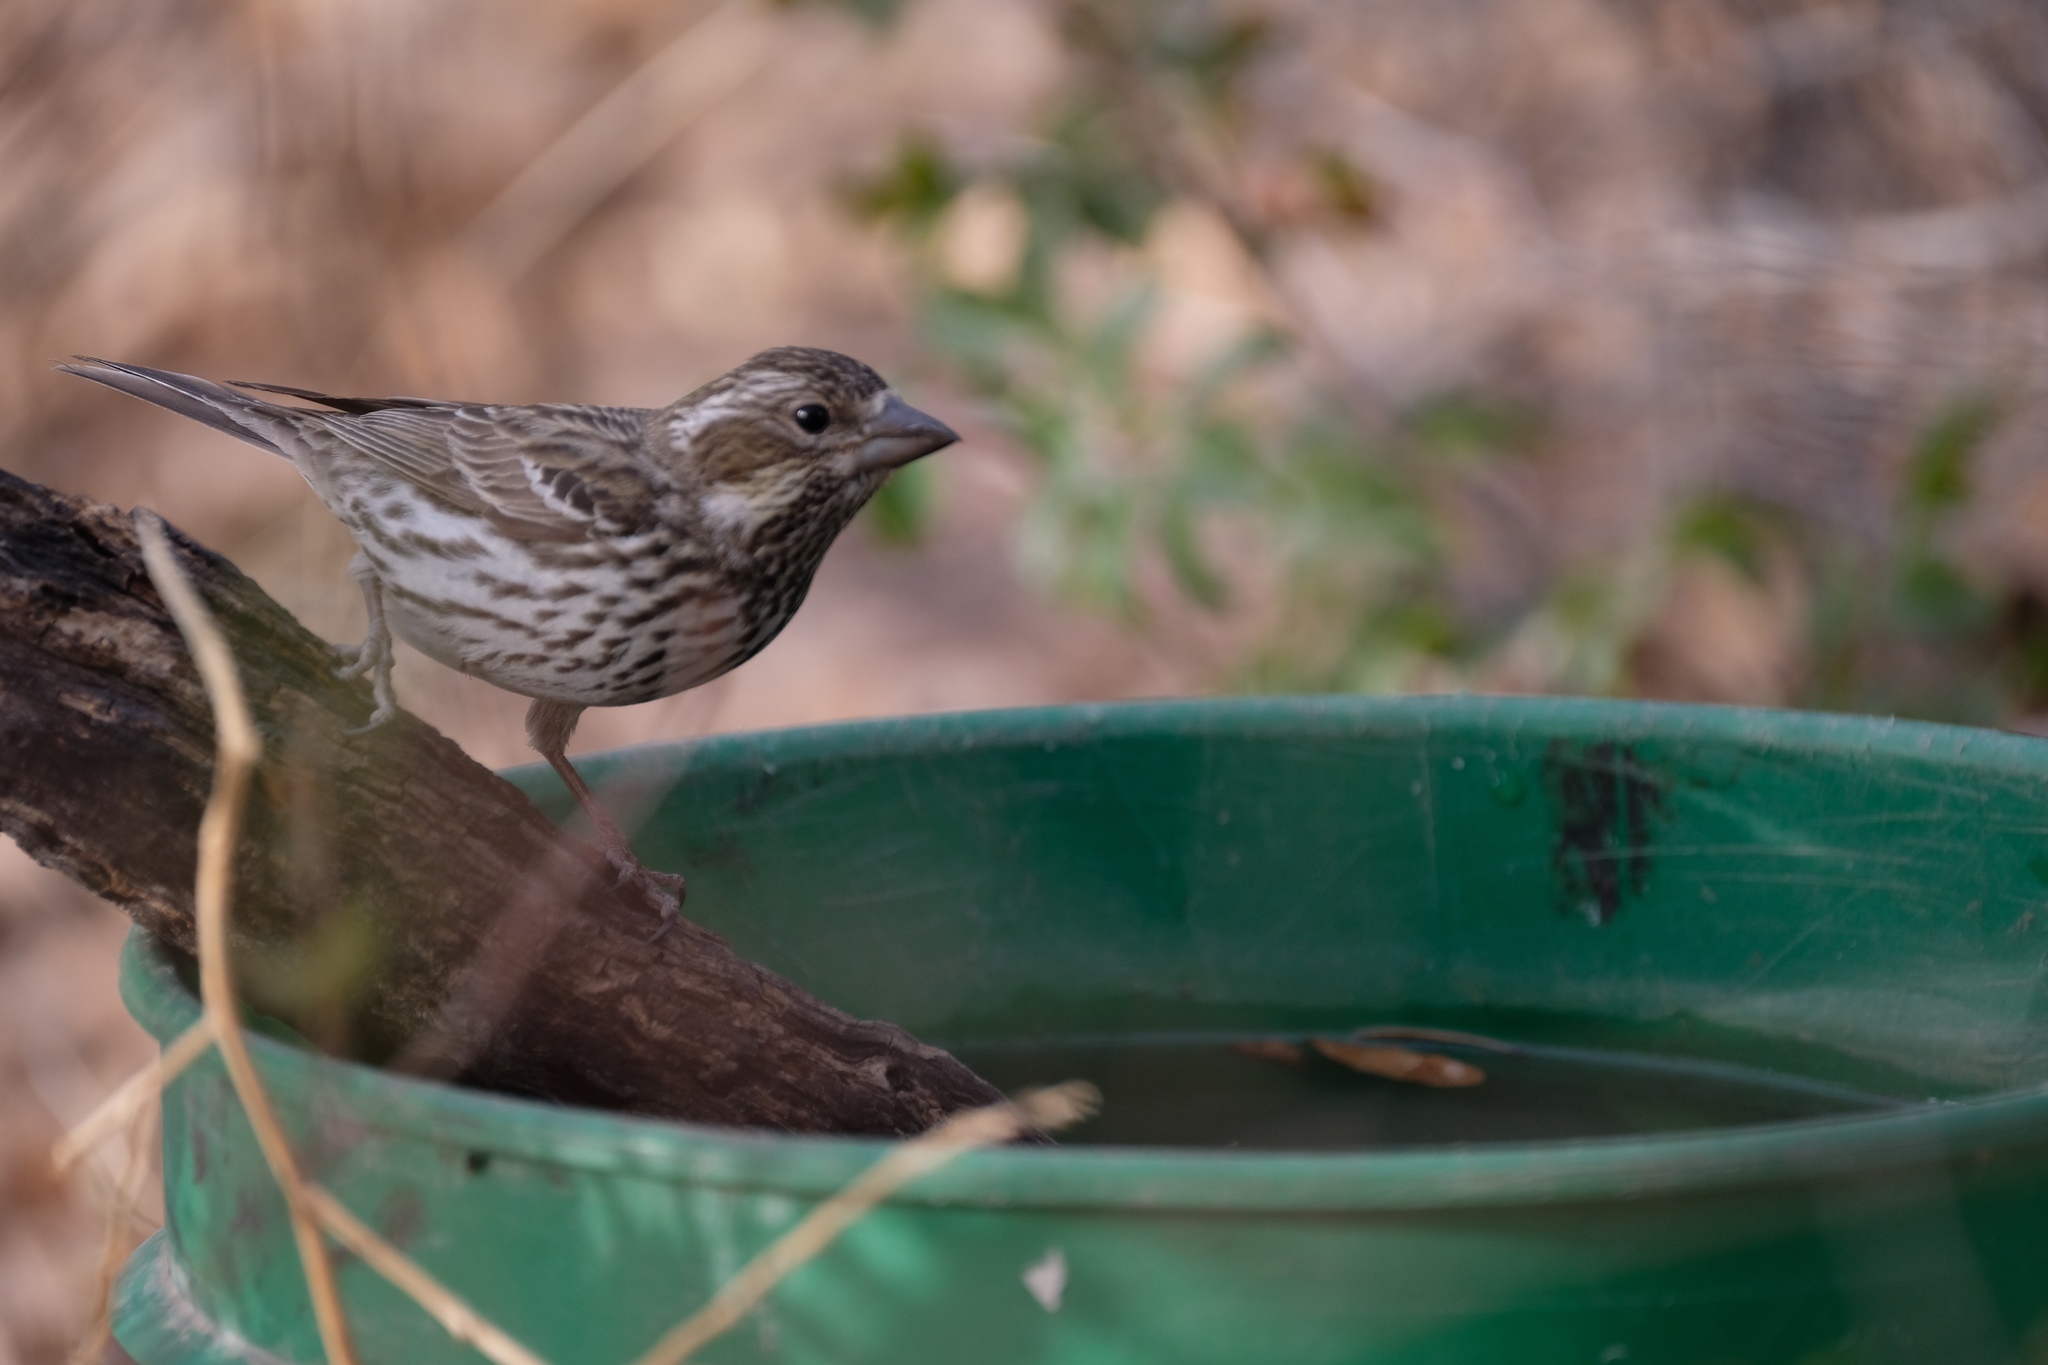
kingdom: Animalia
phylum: Chordata
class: Aves
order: Passeriformes
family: Fringillidae
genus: Haemorhous
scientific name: Haemorhous cassinii
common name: Cassin's finch
